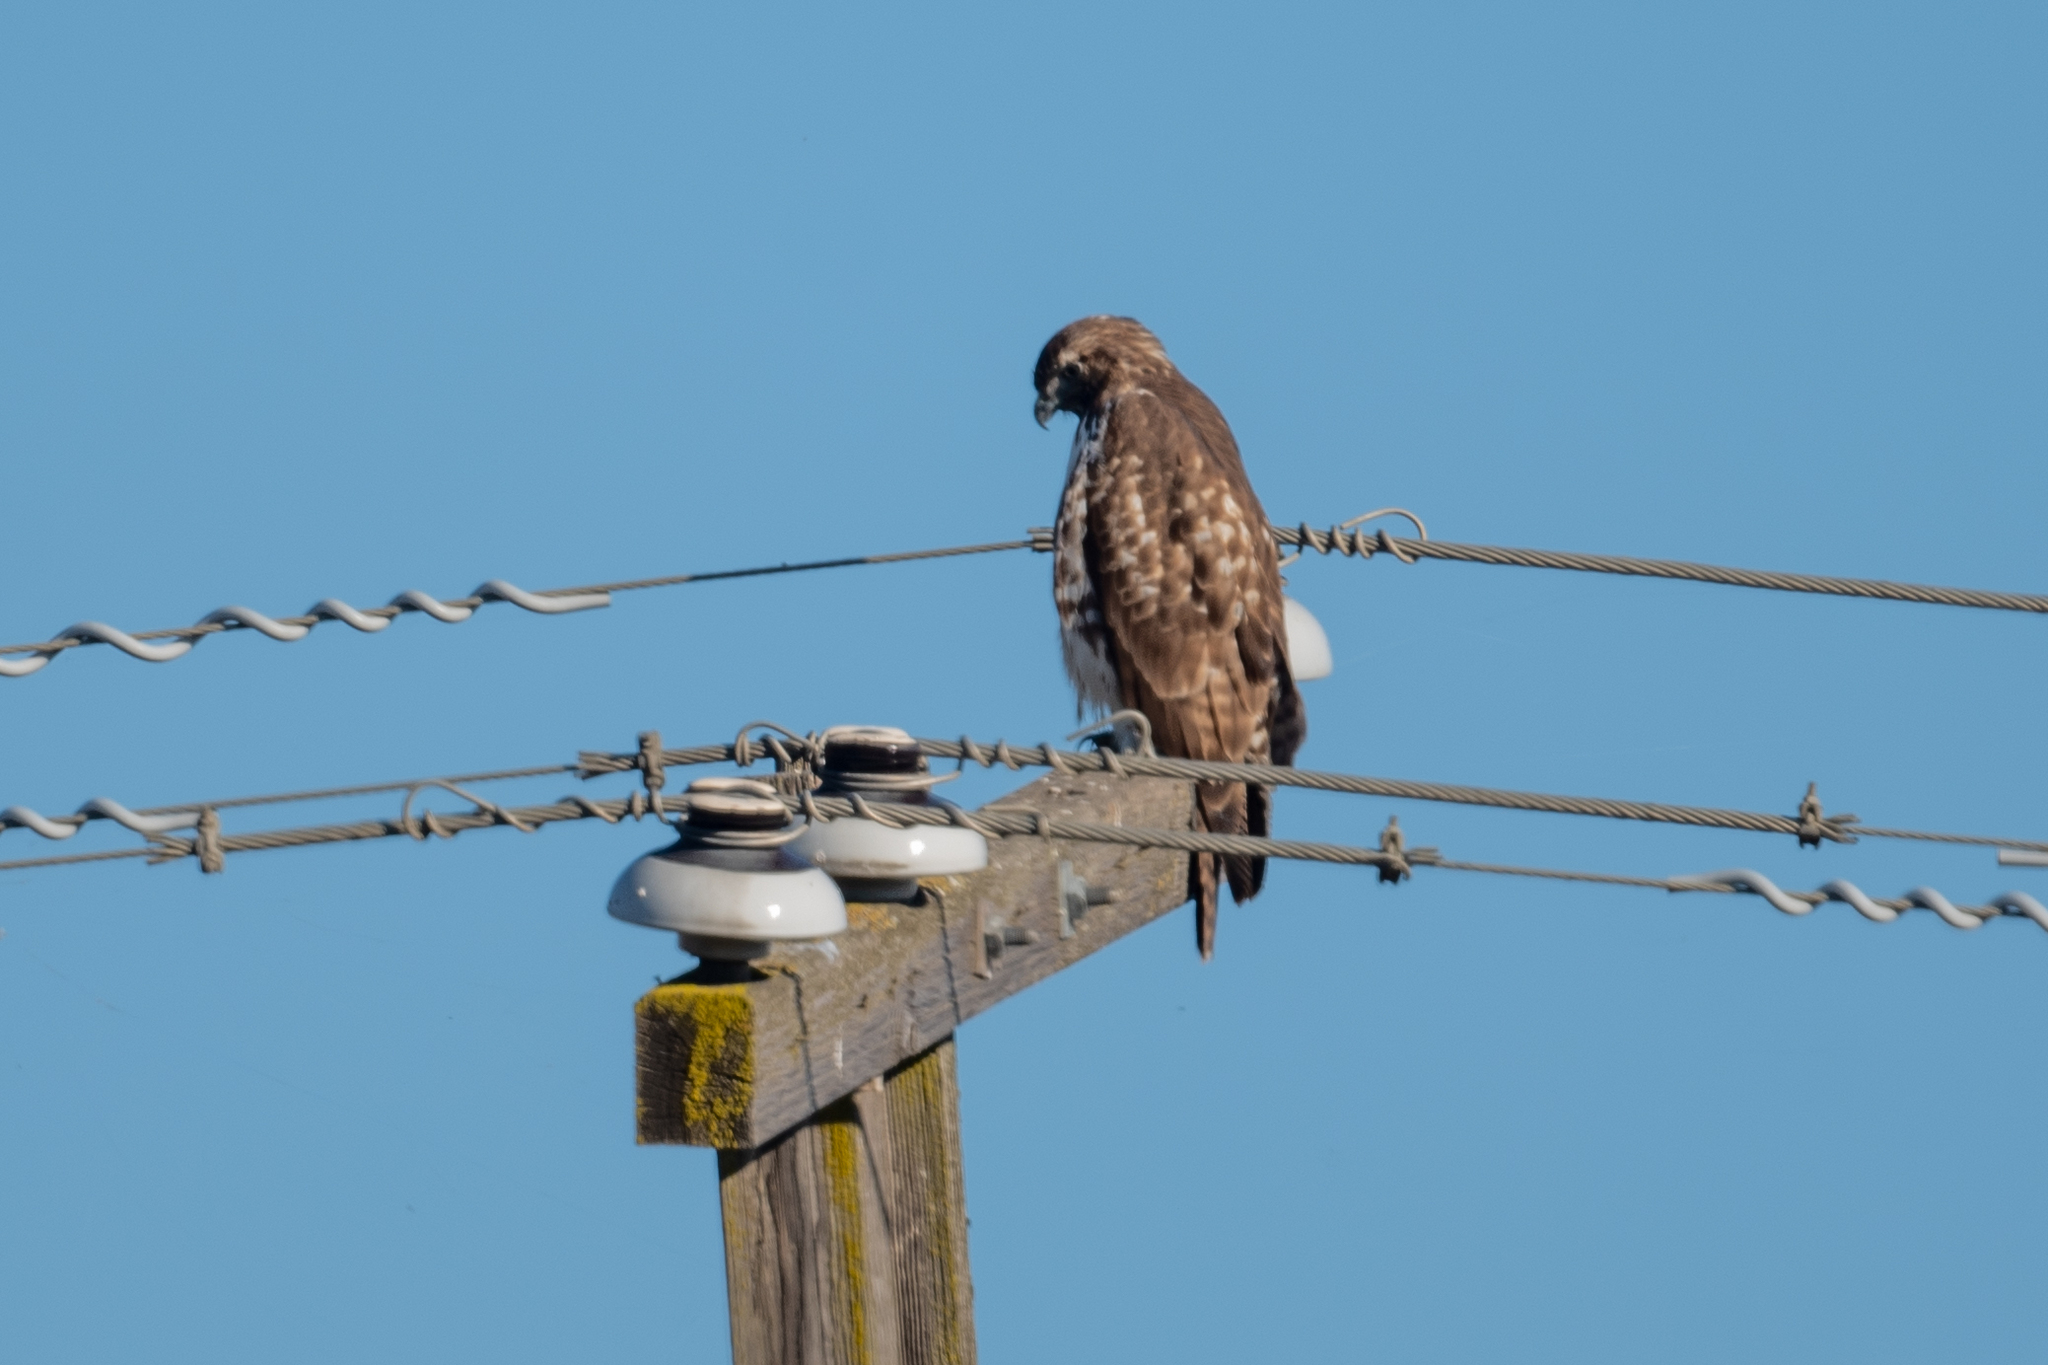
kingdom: Animalia
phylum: Chordata
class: Aves
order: Accipitriformes
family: Accipitridae
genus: Buteo
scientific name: Buteo jamaicensis
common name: Red-tailed hawk
